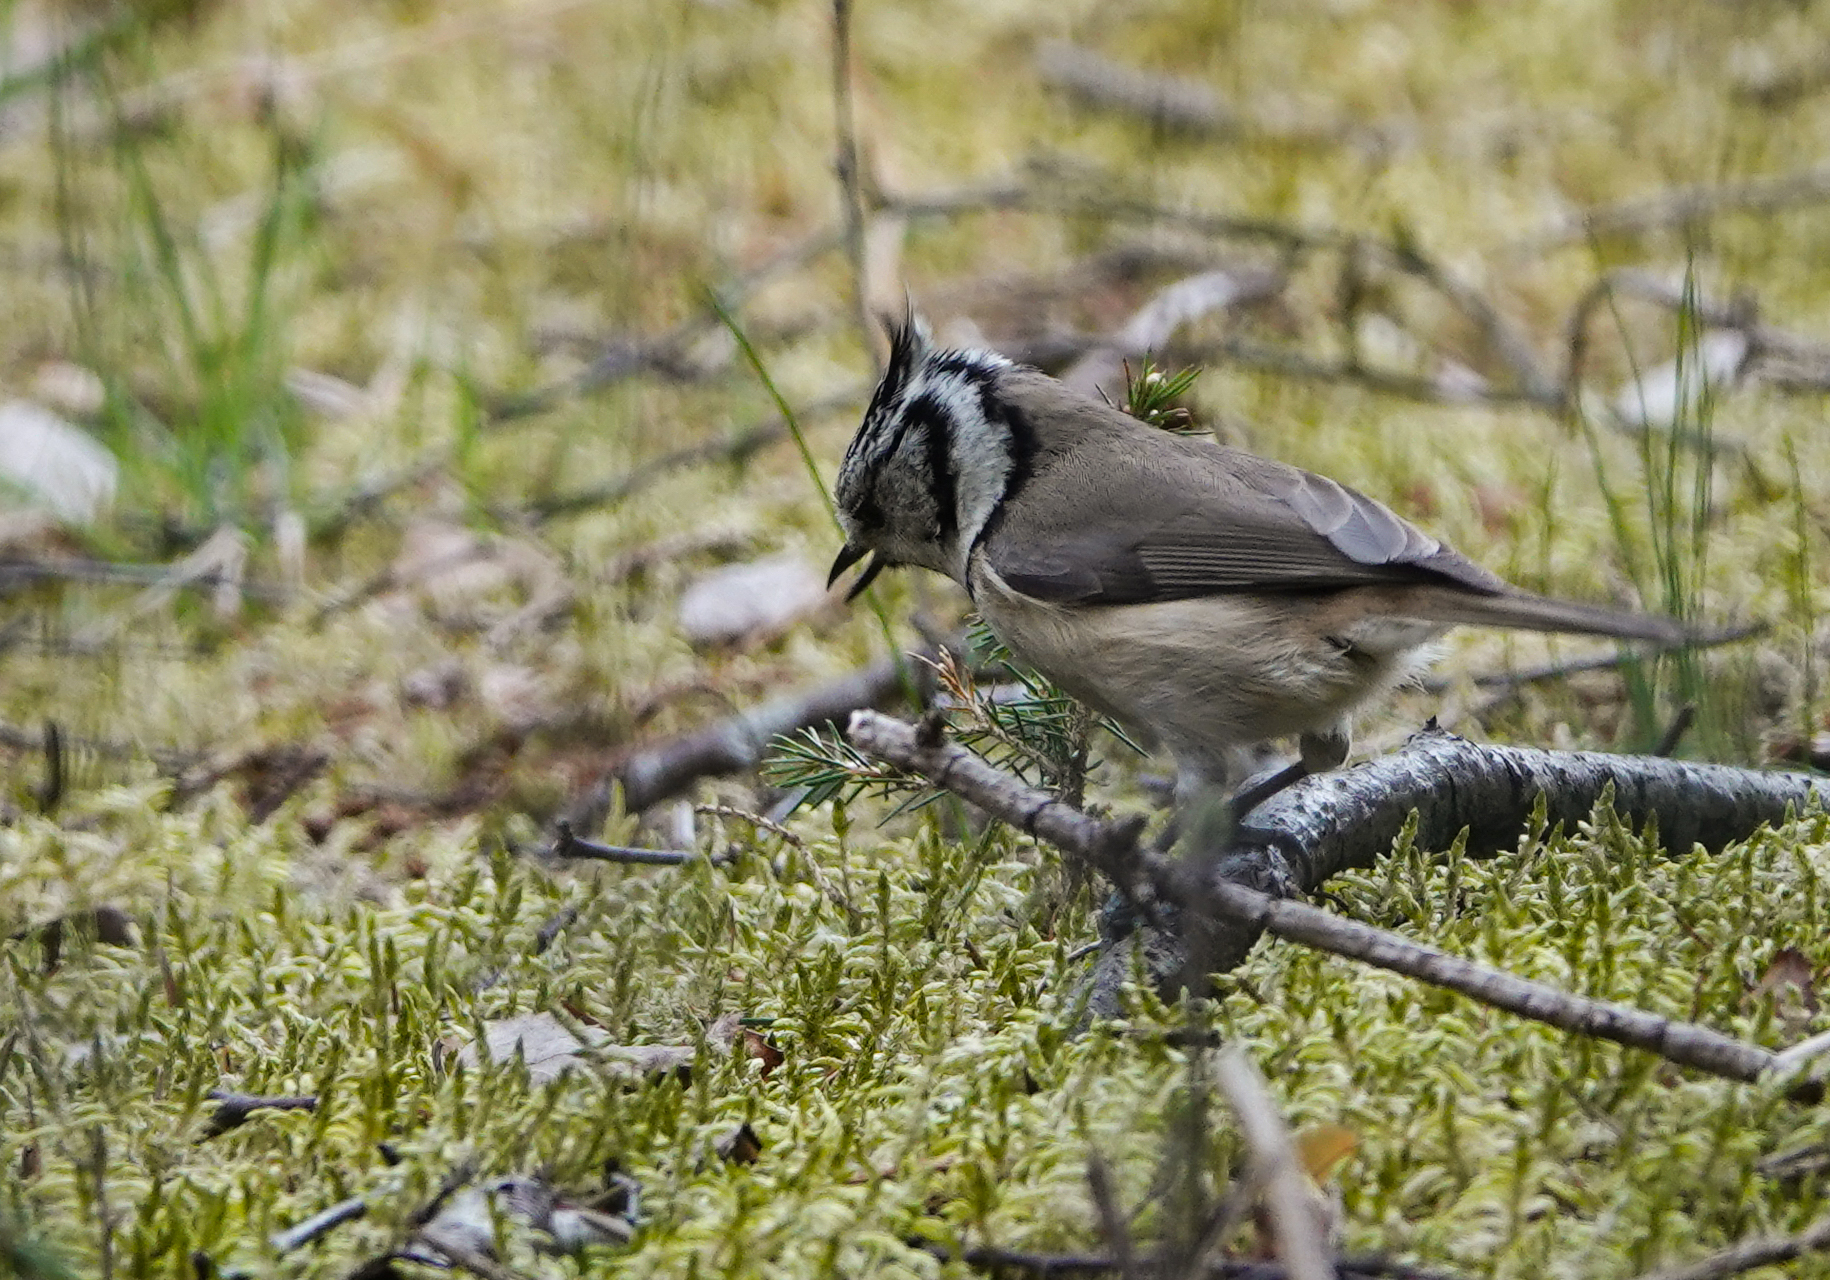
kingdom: Animalia
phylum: Chordata
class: Aves
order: Passeriformes
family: Paridae
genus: Lophophanes
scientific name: Lophophanes cristatus
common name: European crested tit
